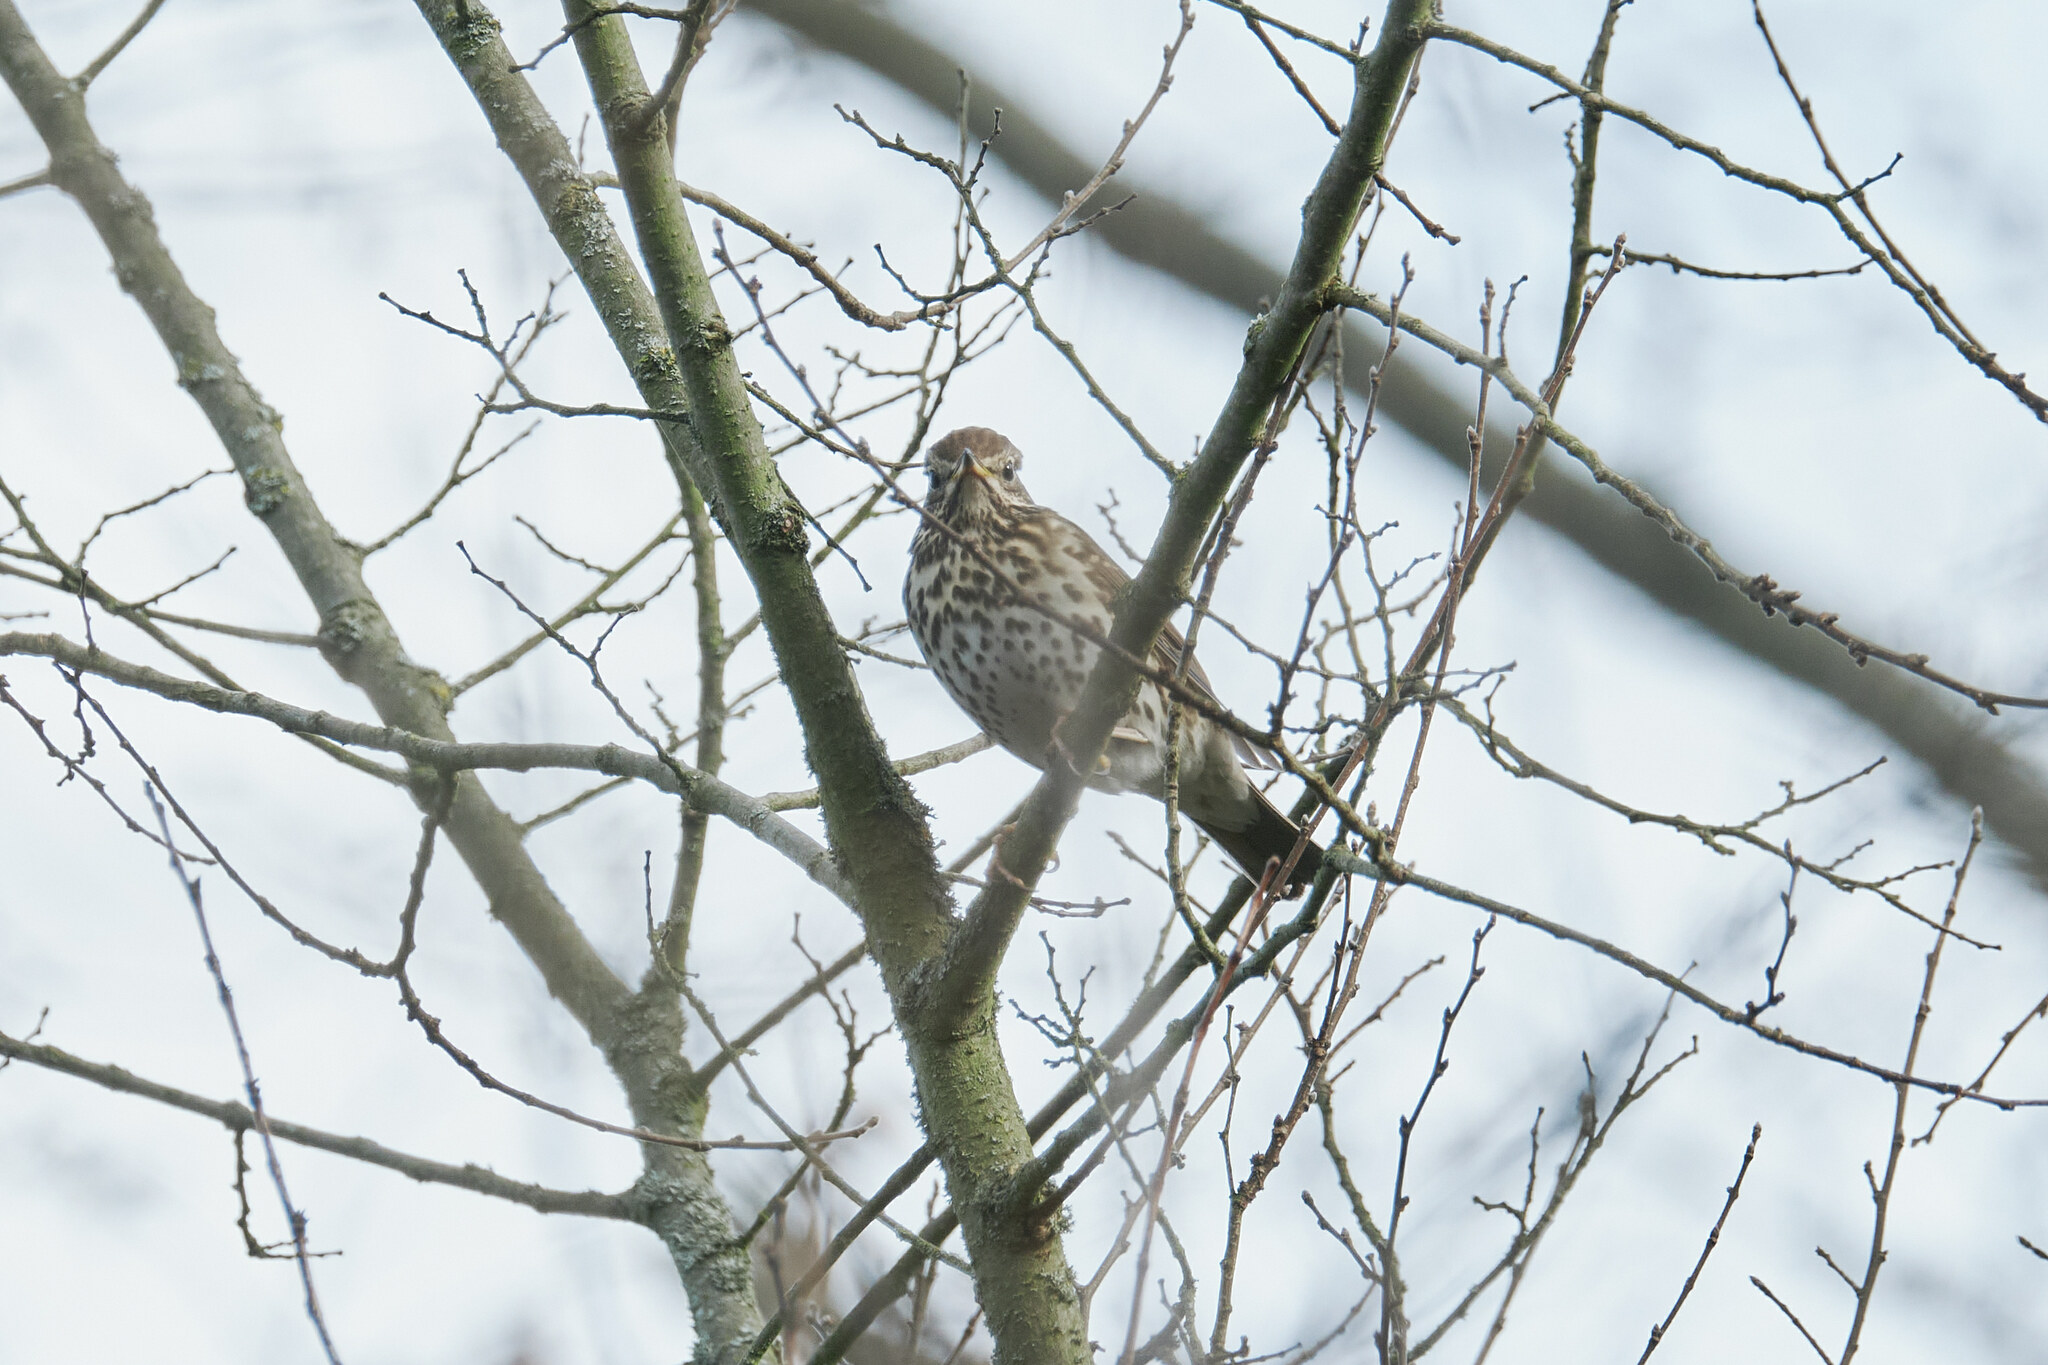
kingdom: Animalia
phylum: Chordata
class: Aves
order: Passeriformes
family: Turdidae
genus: Turdus
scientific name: Turdus philomelos
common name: Song thrush
